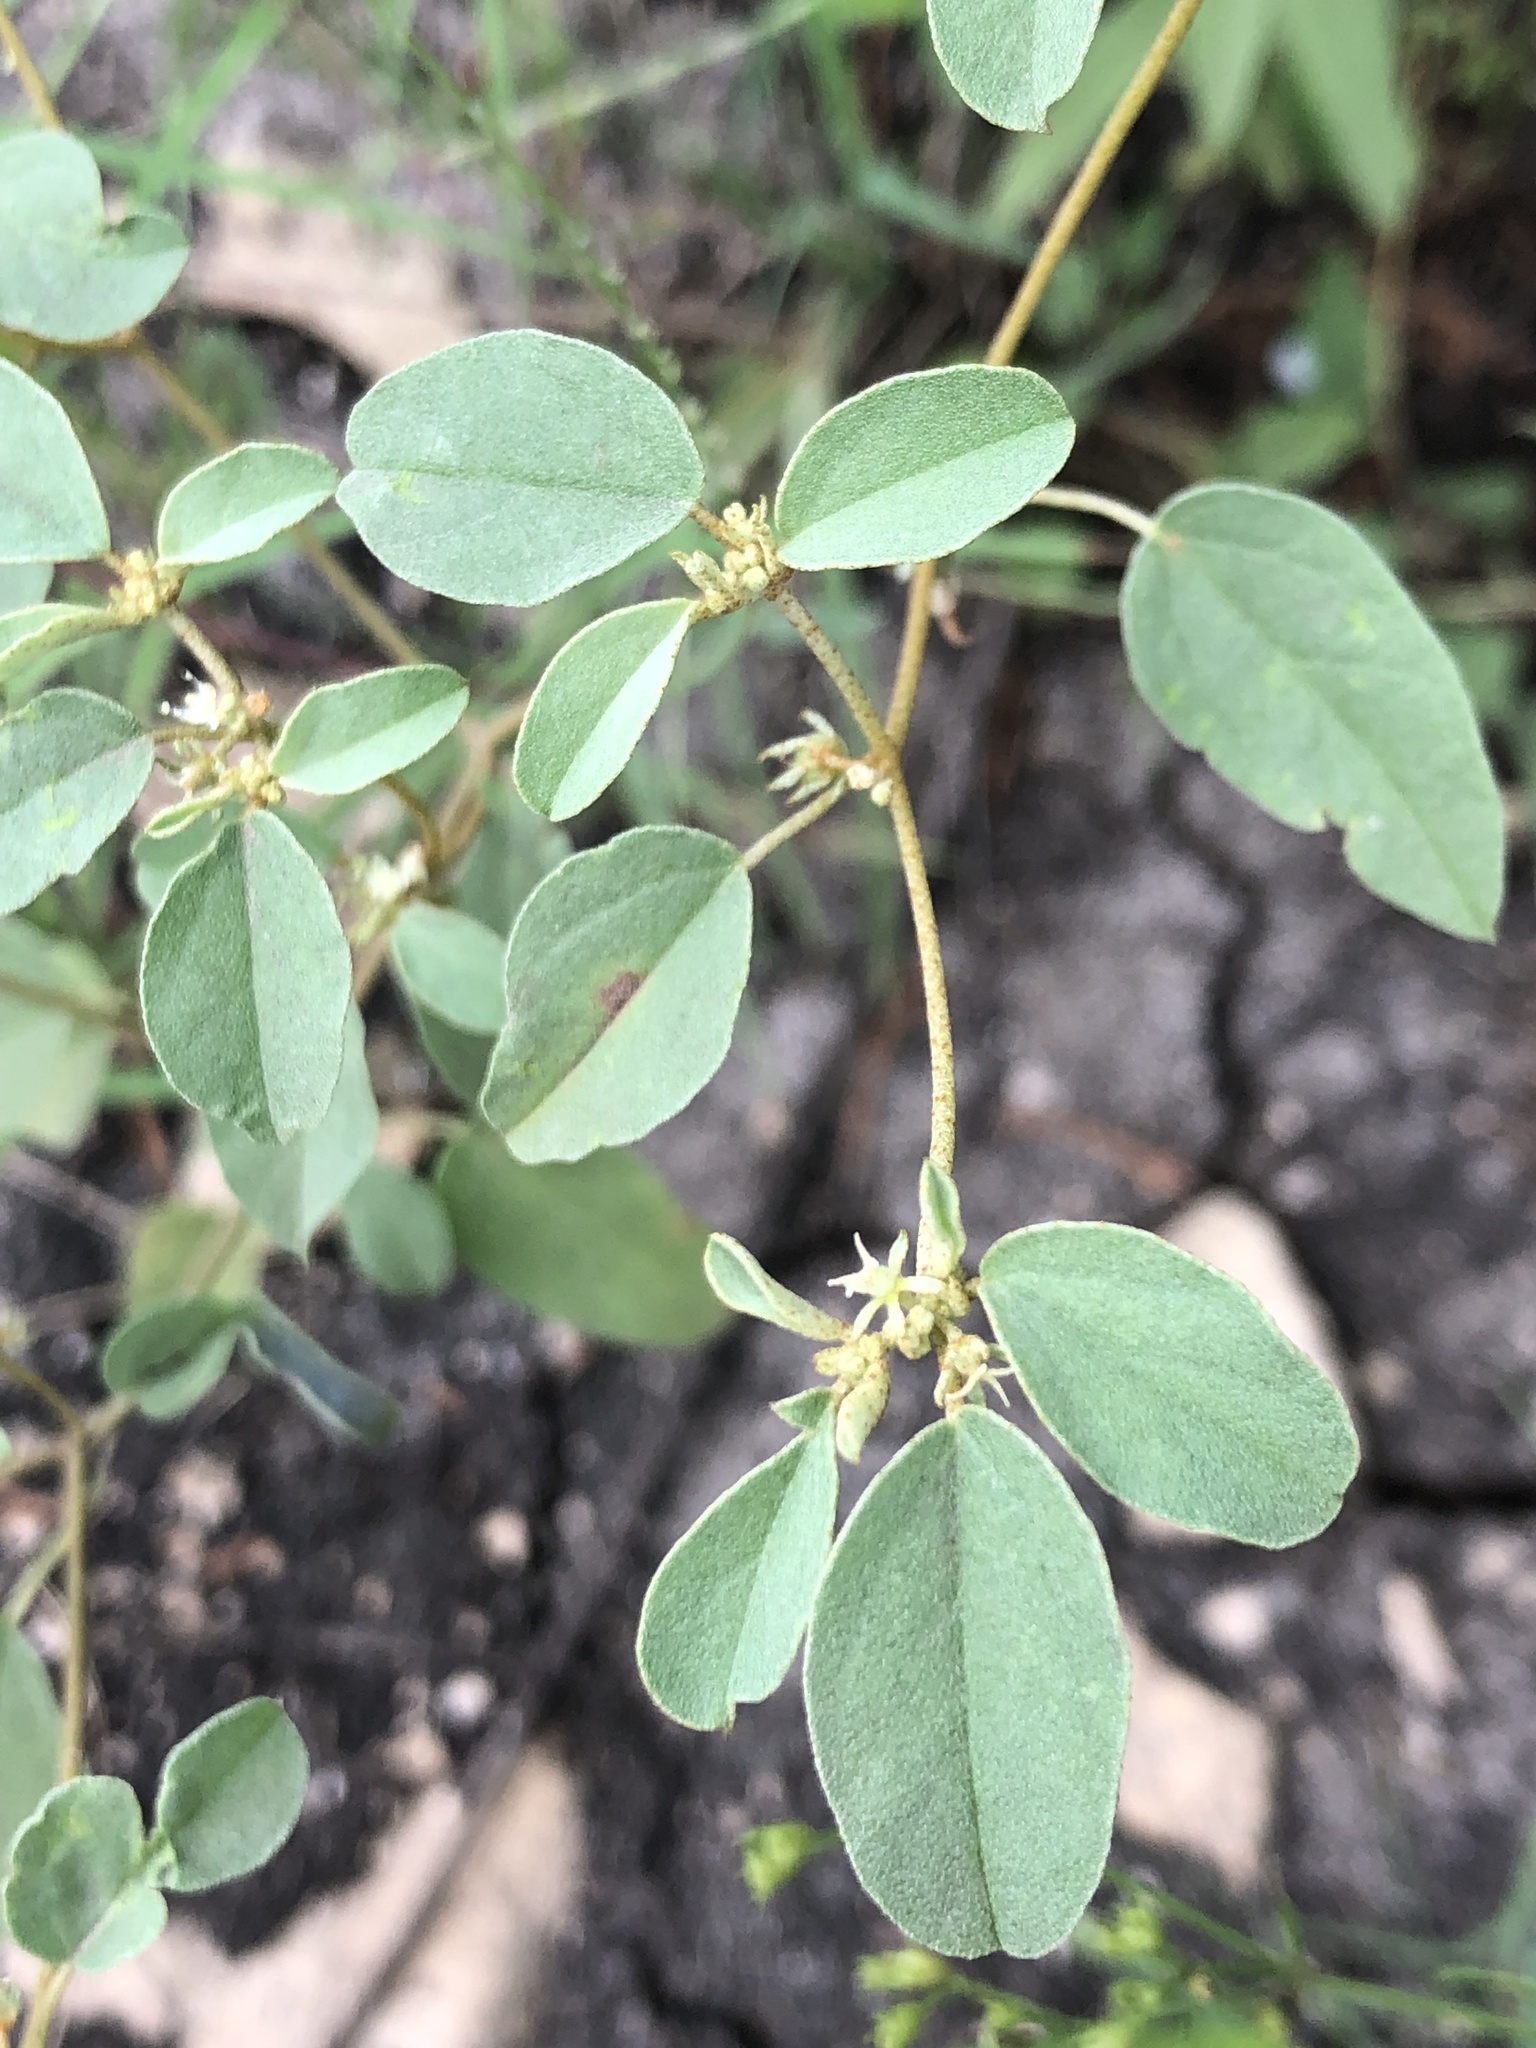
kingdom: Plantae
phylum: Tracheophyta
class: Magnoliopsida
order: Malpighiales
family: Euphorbiaceae
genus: Croton
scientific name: Croton monanthogynus
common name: One-seed croton
